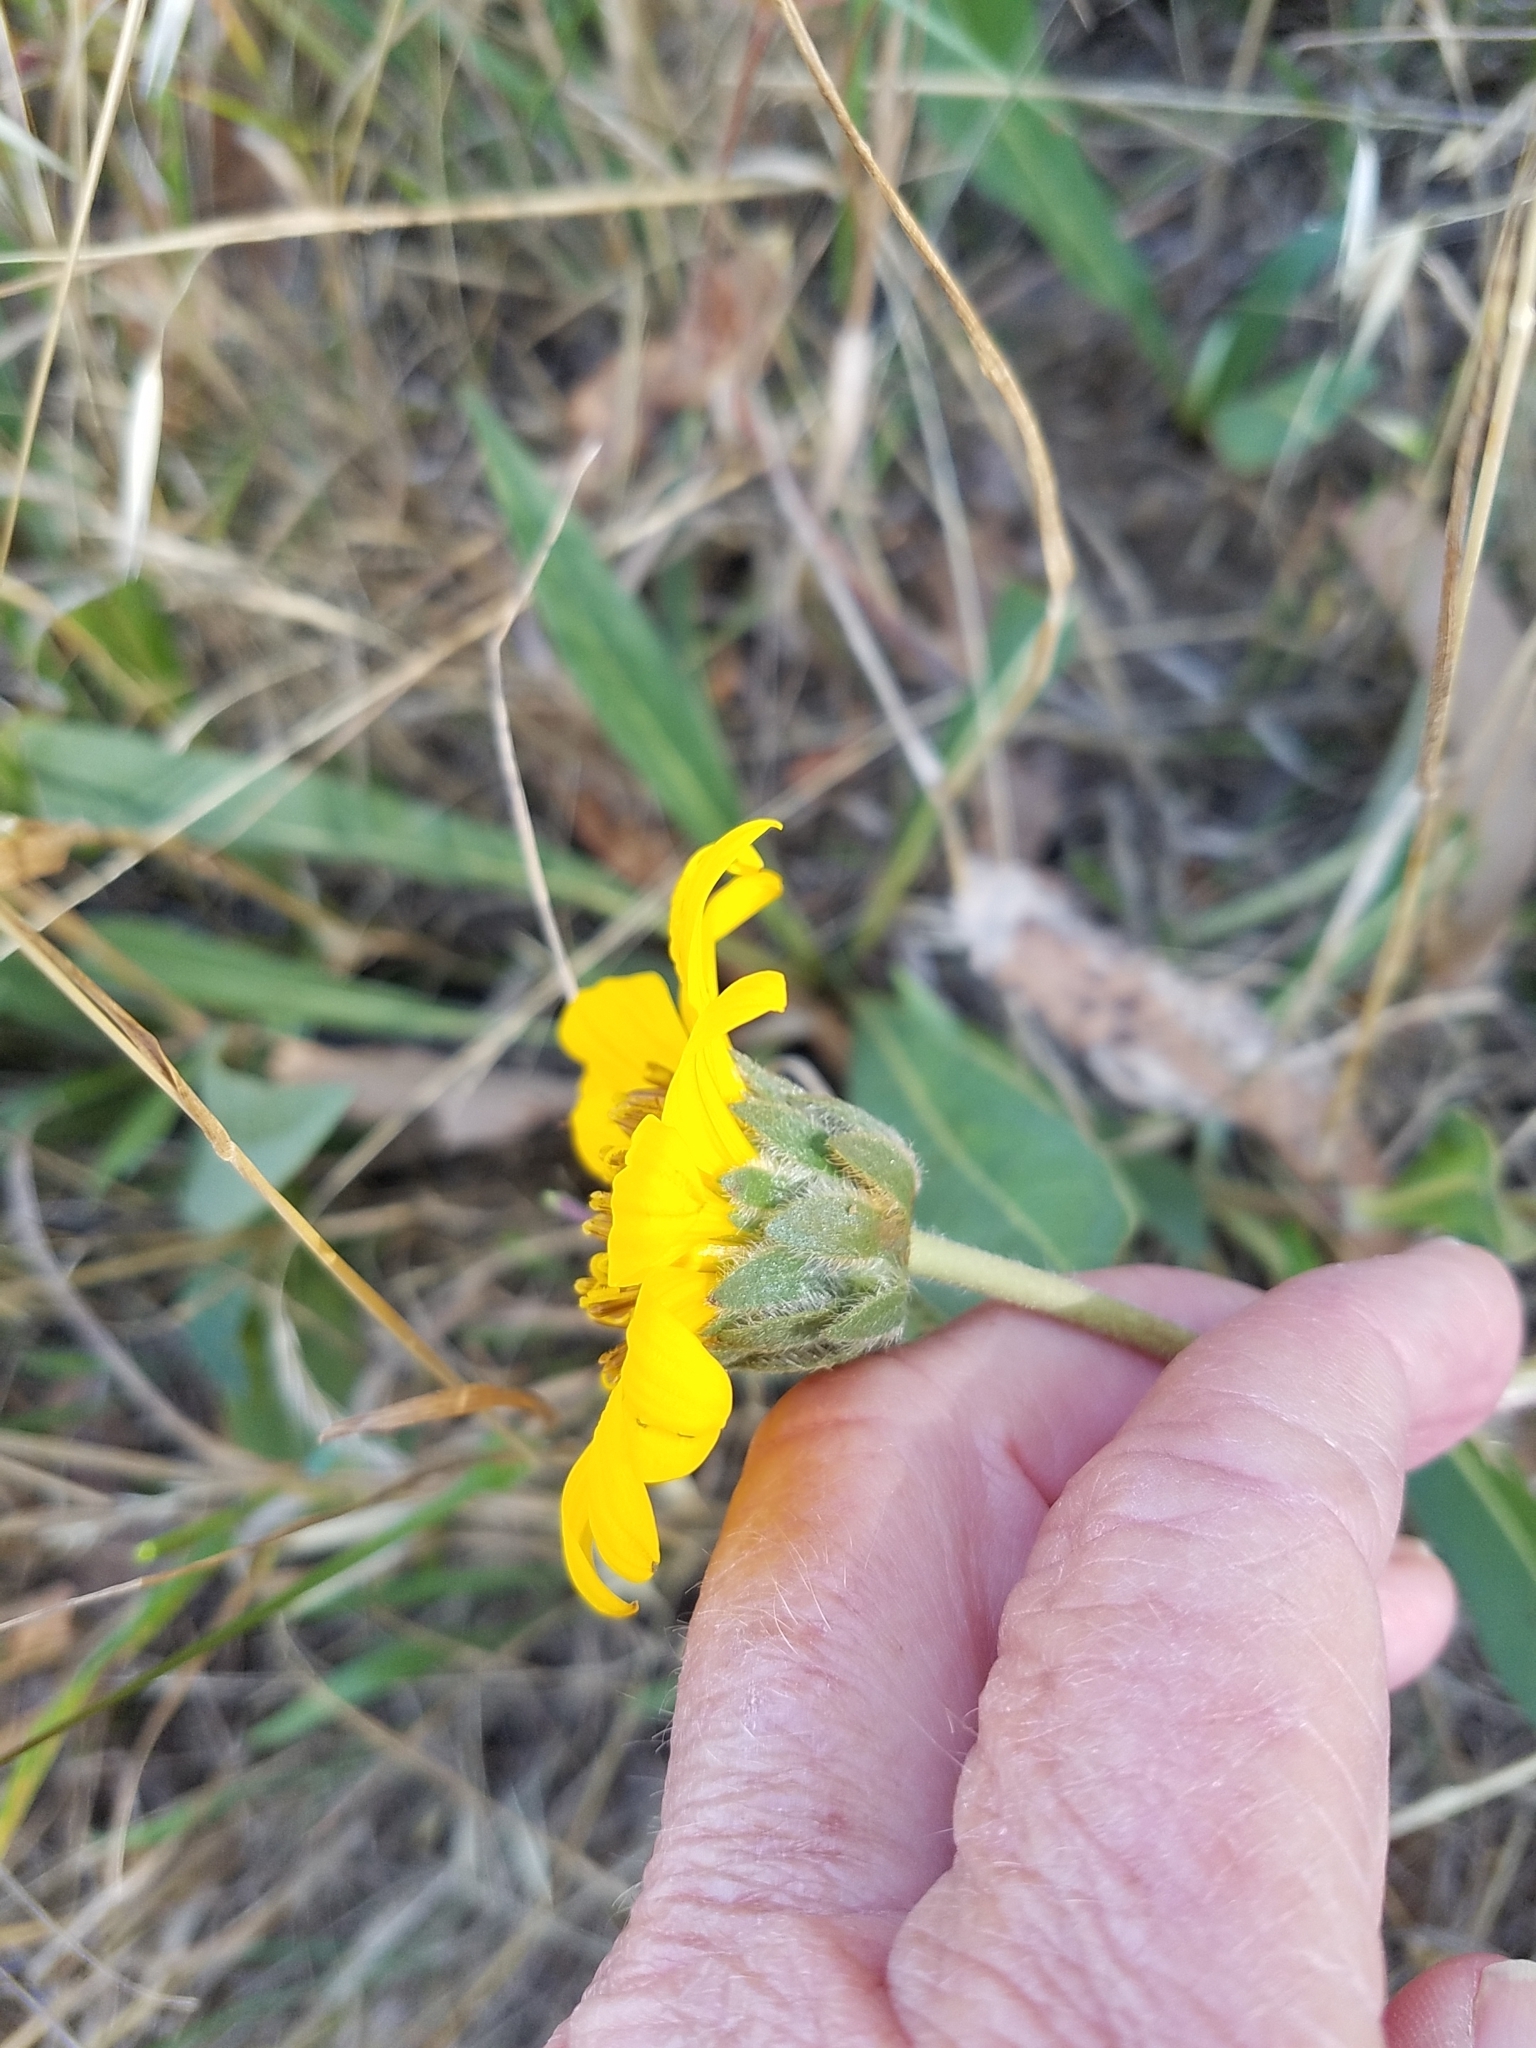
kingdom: Plantae
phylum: Tracheophyta
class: Magnoliopsida
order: Asterales
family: Asteraceae
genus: Wyethia
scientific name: Wyethia angustifolia
